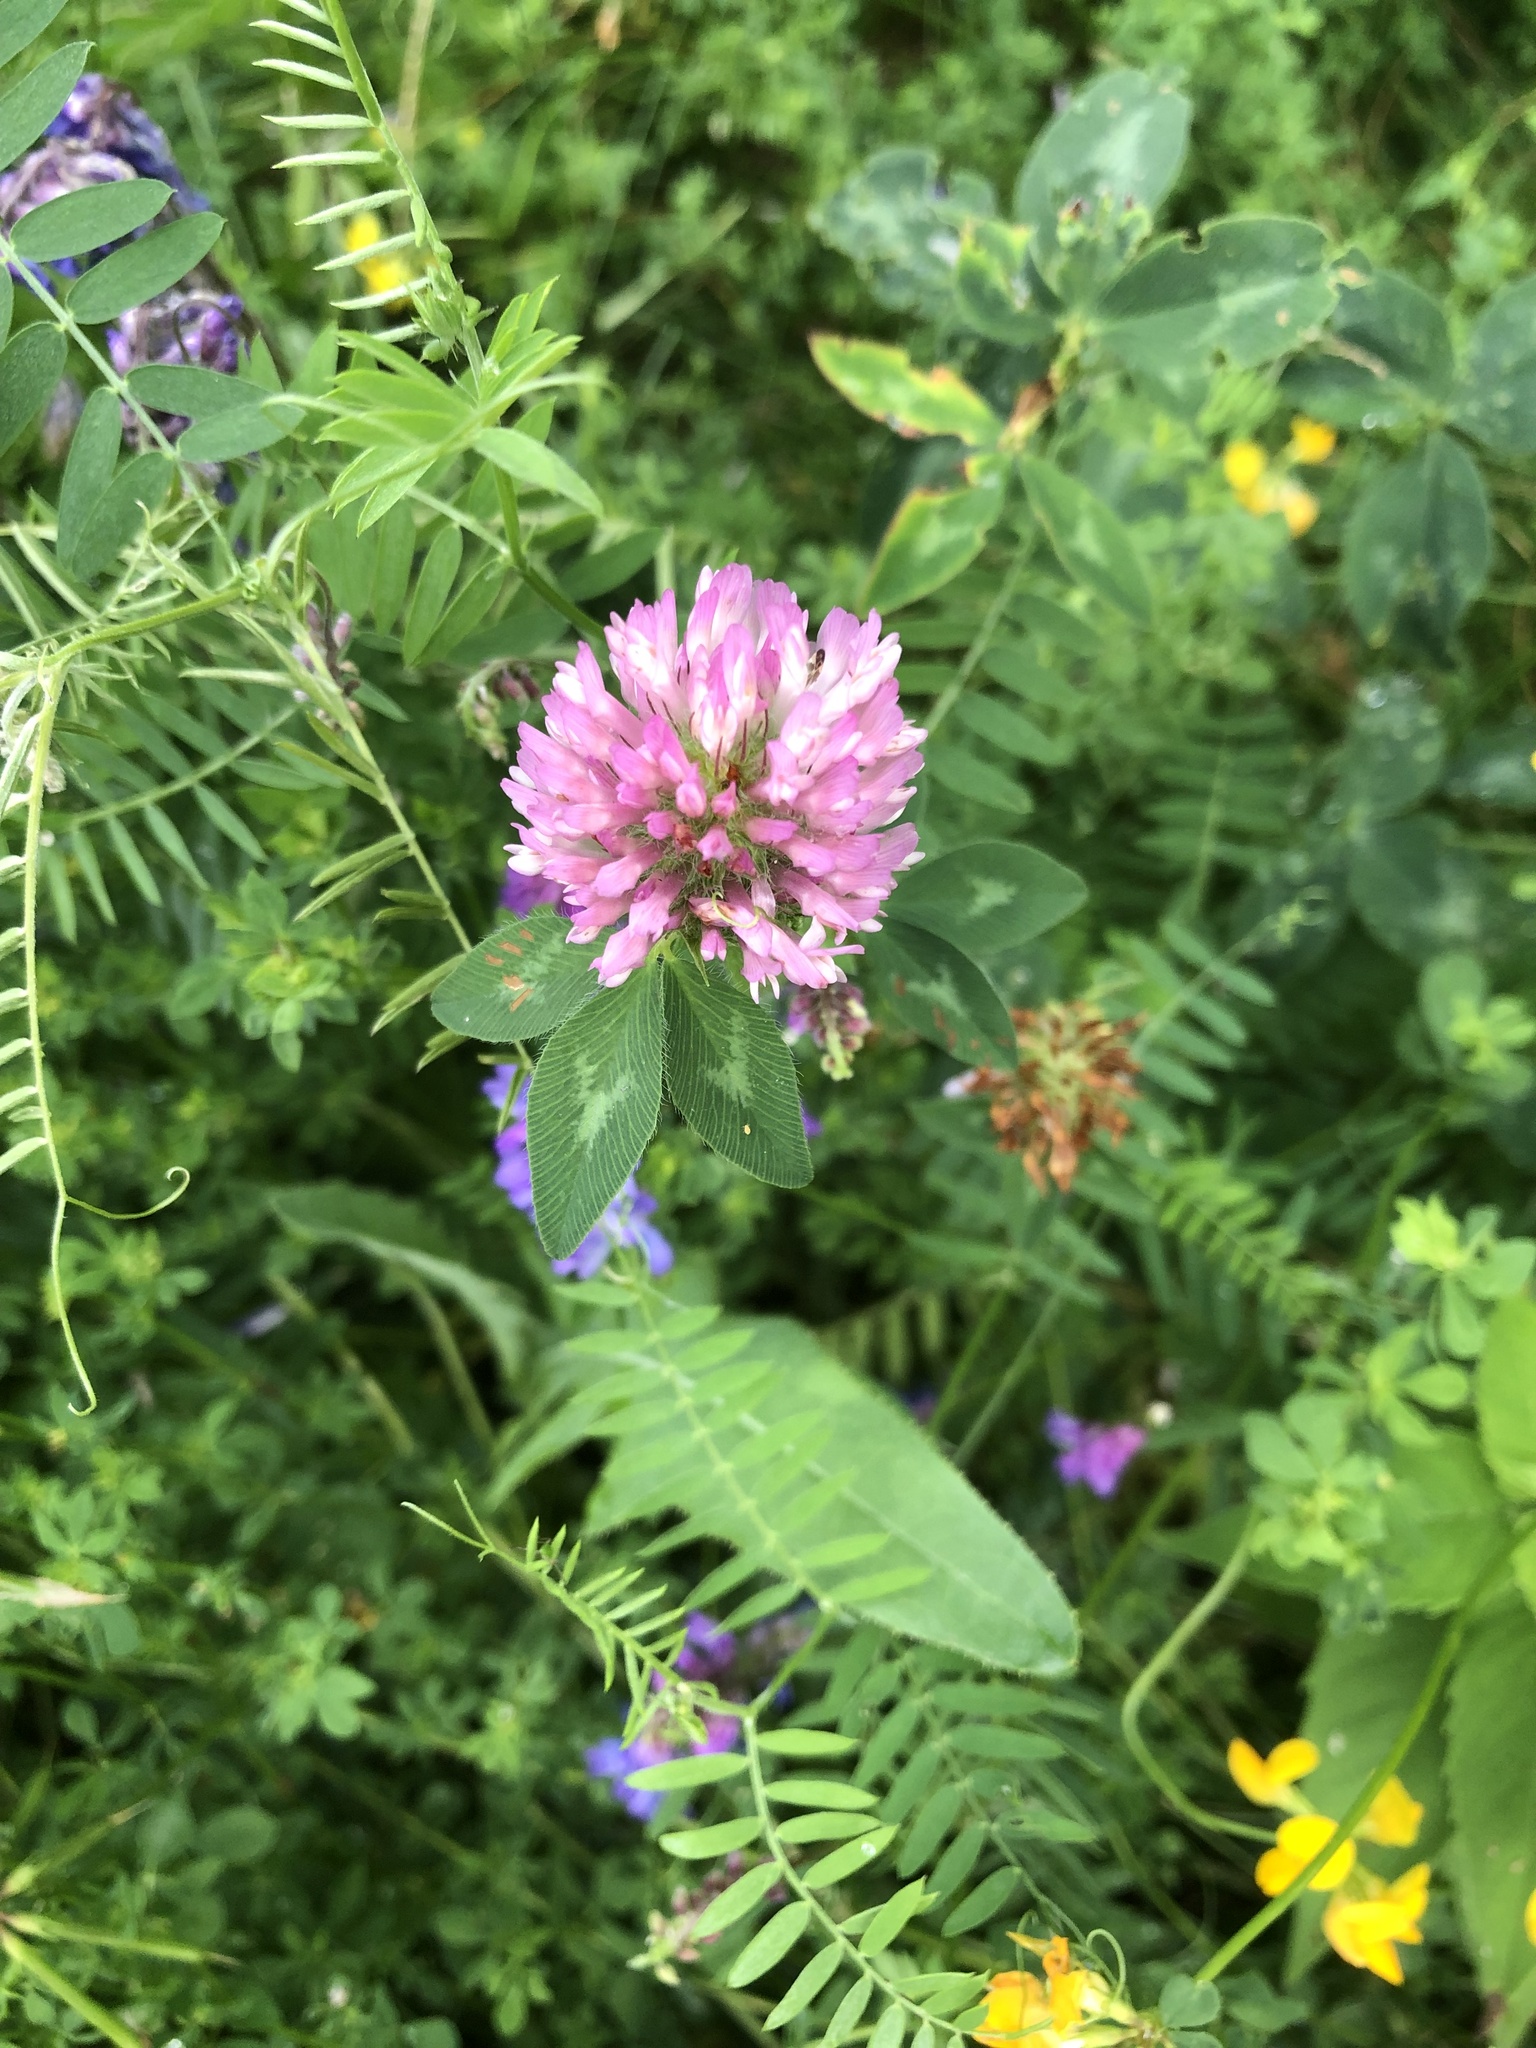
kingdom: Plantae
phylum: Tracheophyta
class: Magnoliopsida
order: Fabales
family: Fabaceae
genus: Trifolium
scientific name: Trifolium pratense
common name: Red clover
